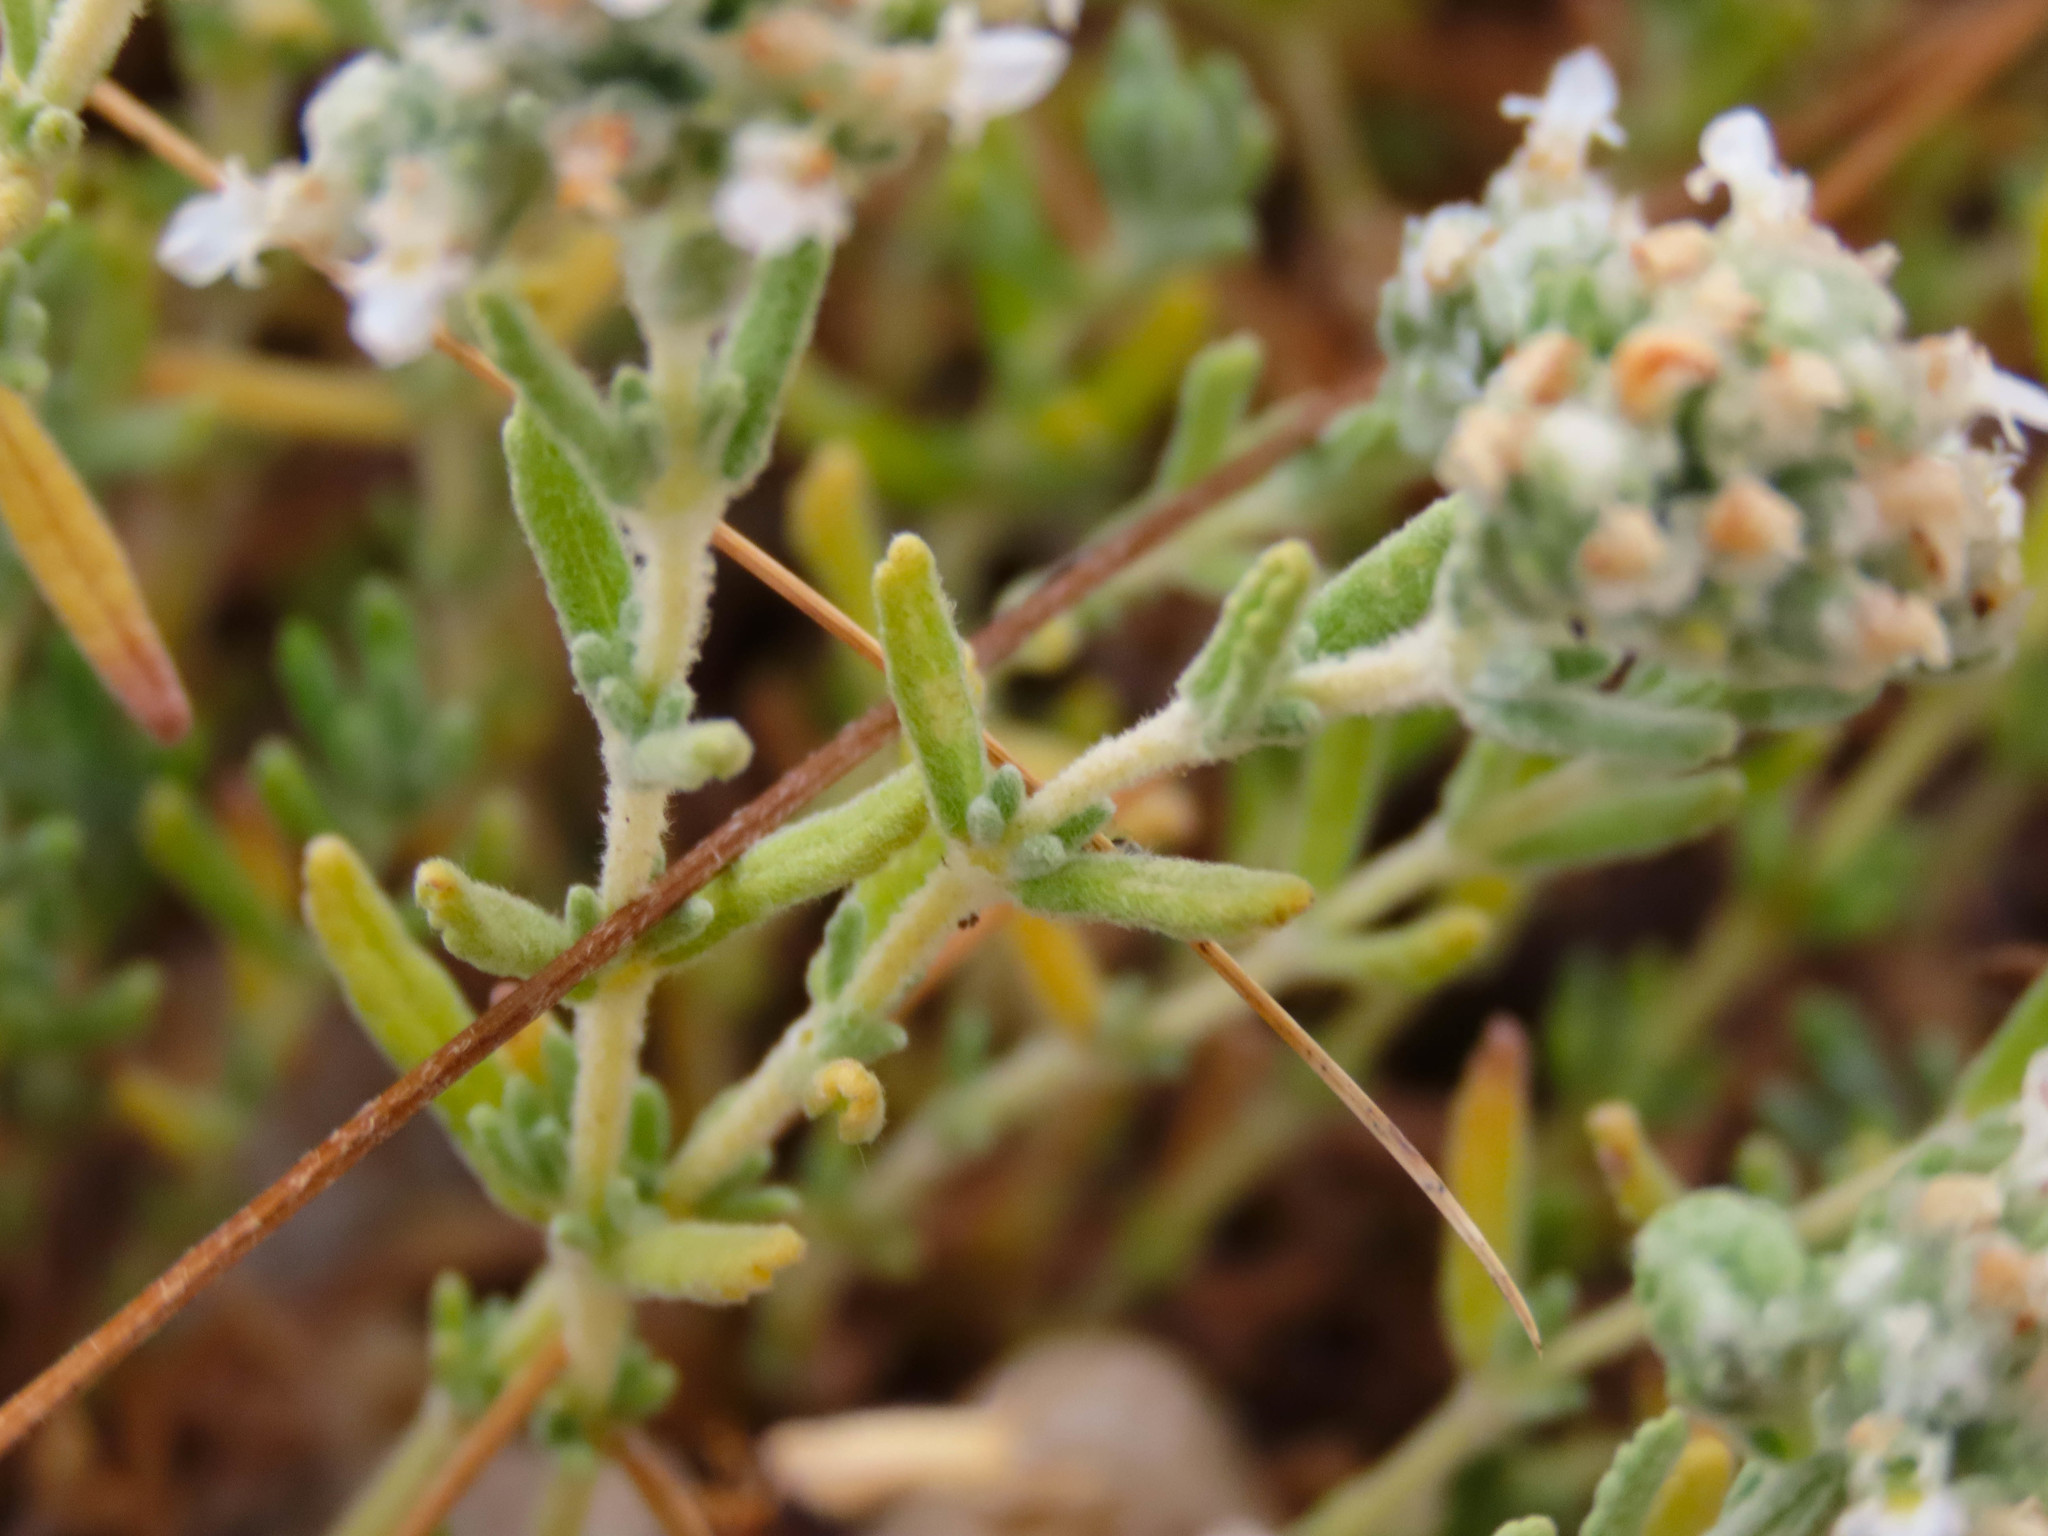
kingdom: Plantae
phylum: Tracheophyta
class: Magnoliopsida
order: Lamiales
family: Lamiaceae
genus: Teucrium
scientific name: Teucrium capitatum
